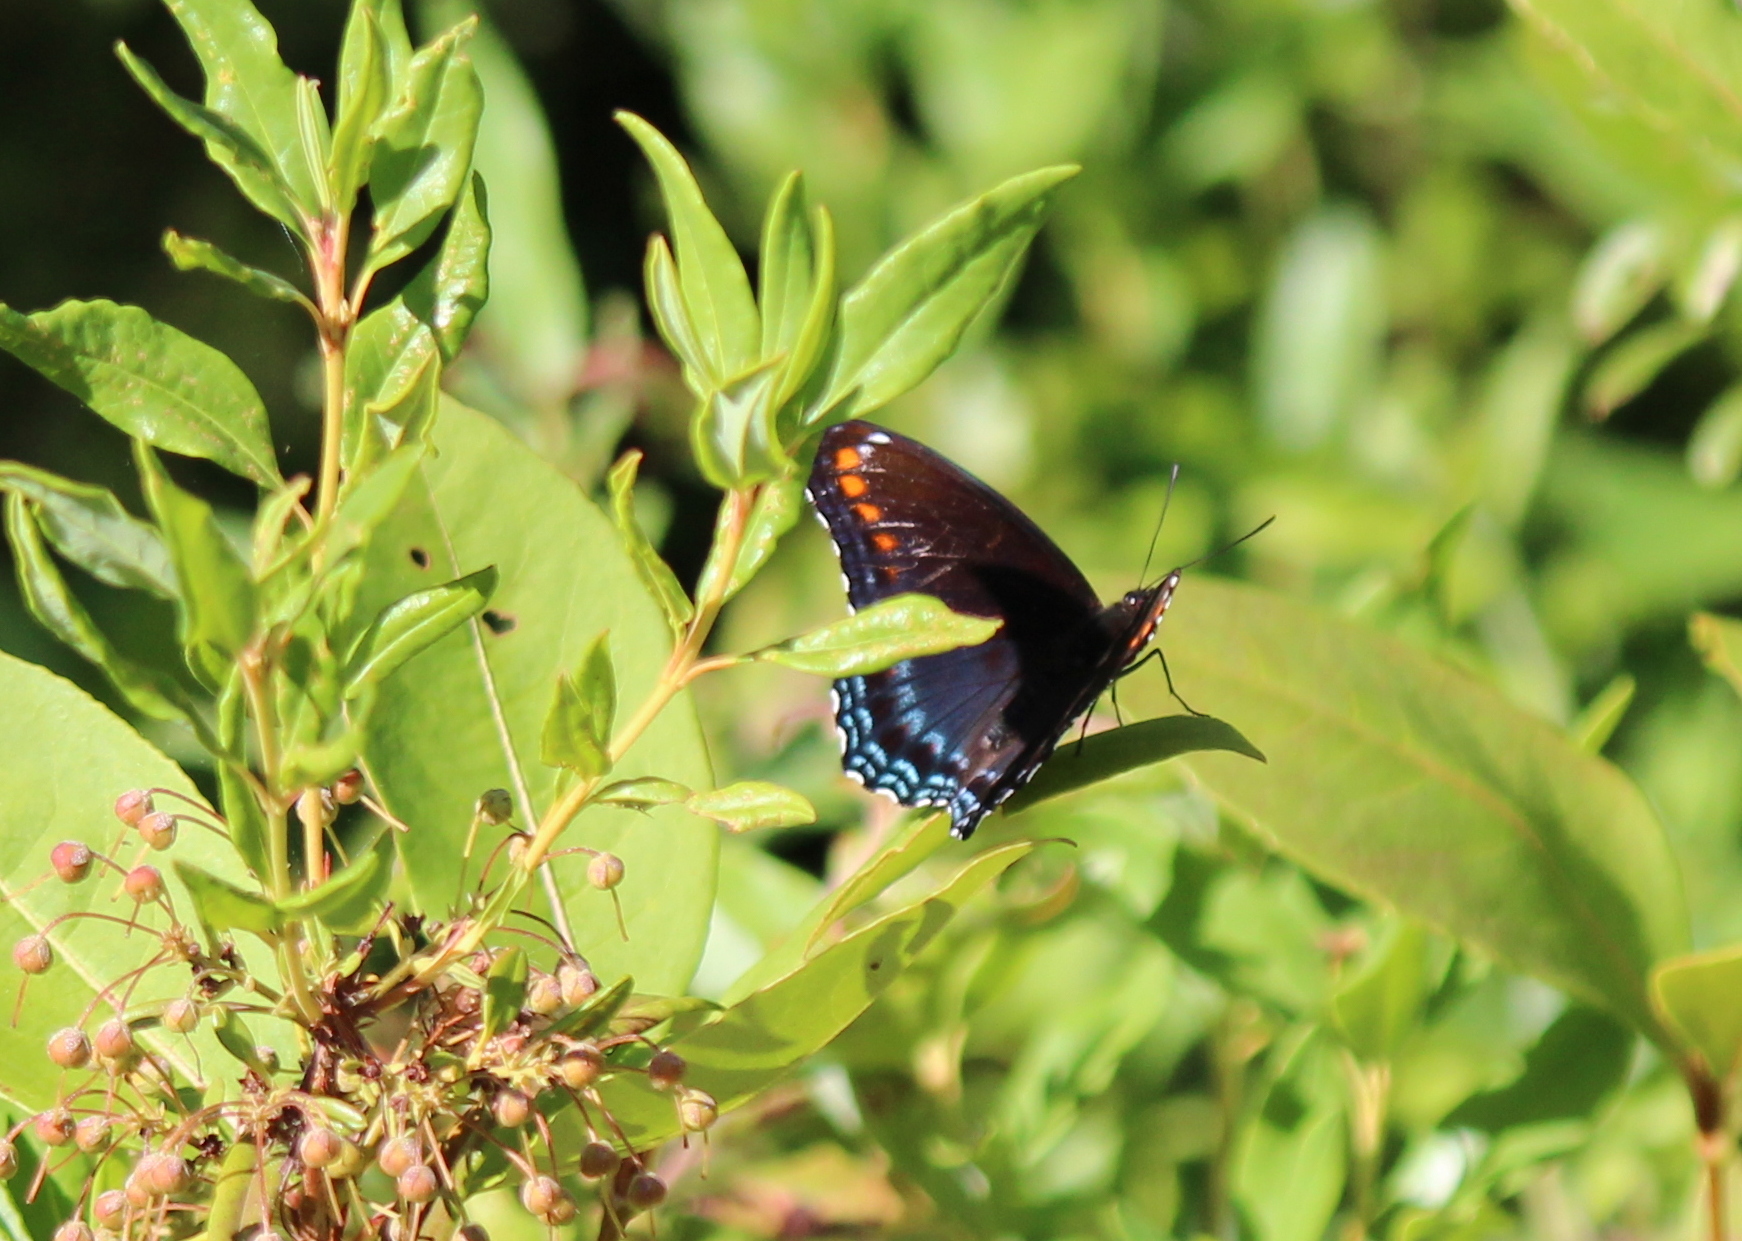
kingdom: Animalia
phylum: Arthropoda
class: Insecta
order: Lepidoptera
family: Nymphalidae
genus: Limenitis
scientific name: Limenitis astyanax
